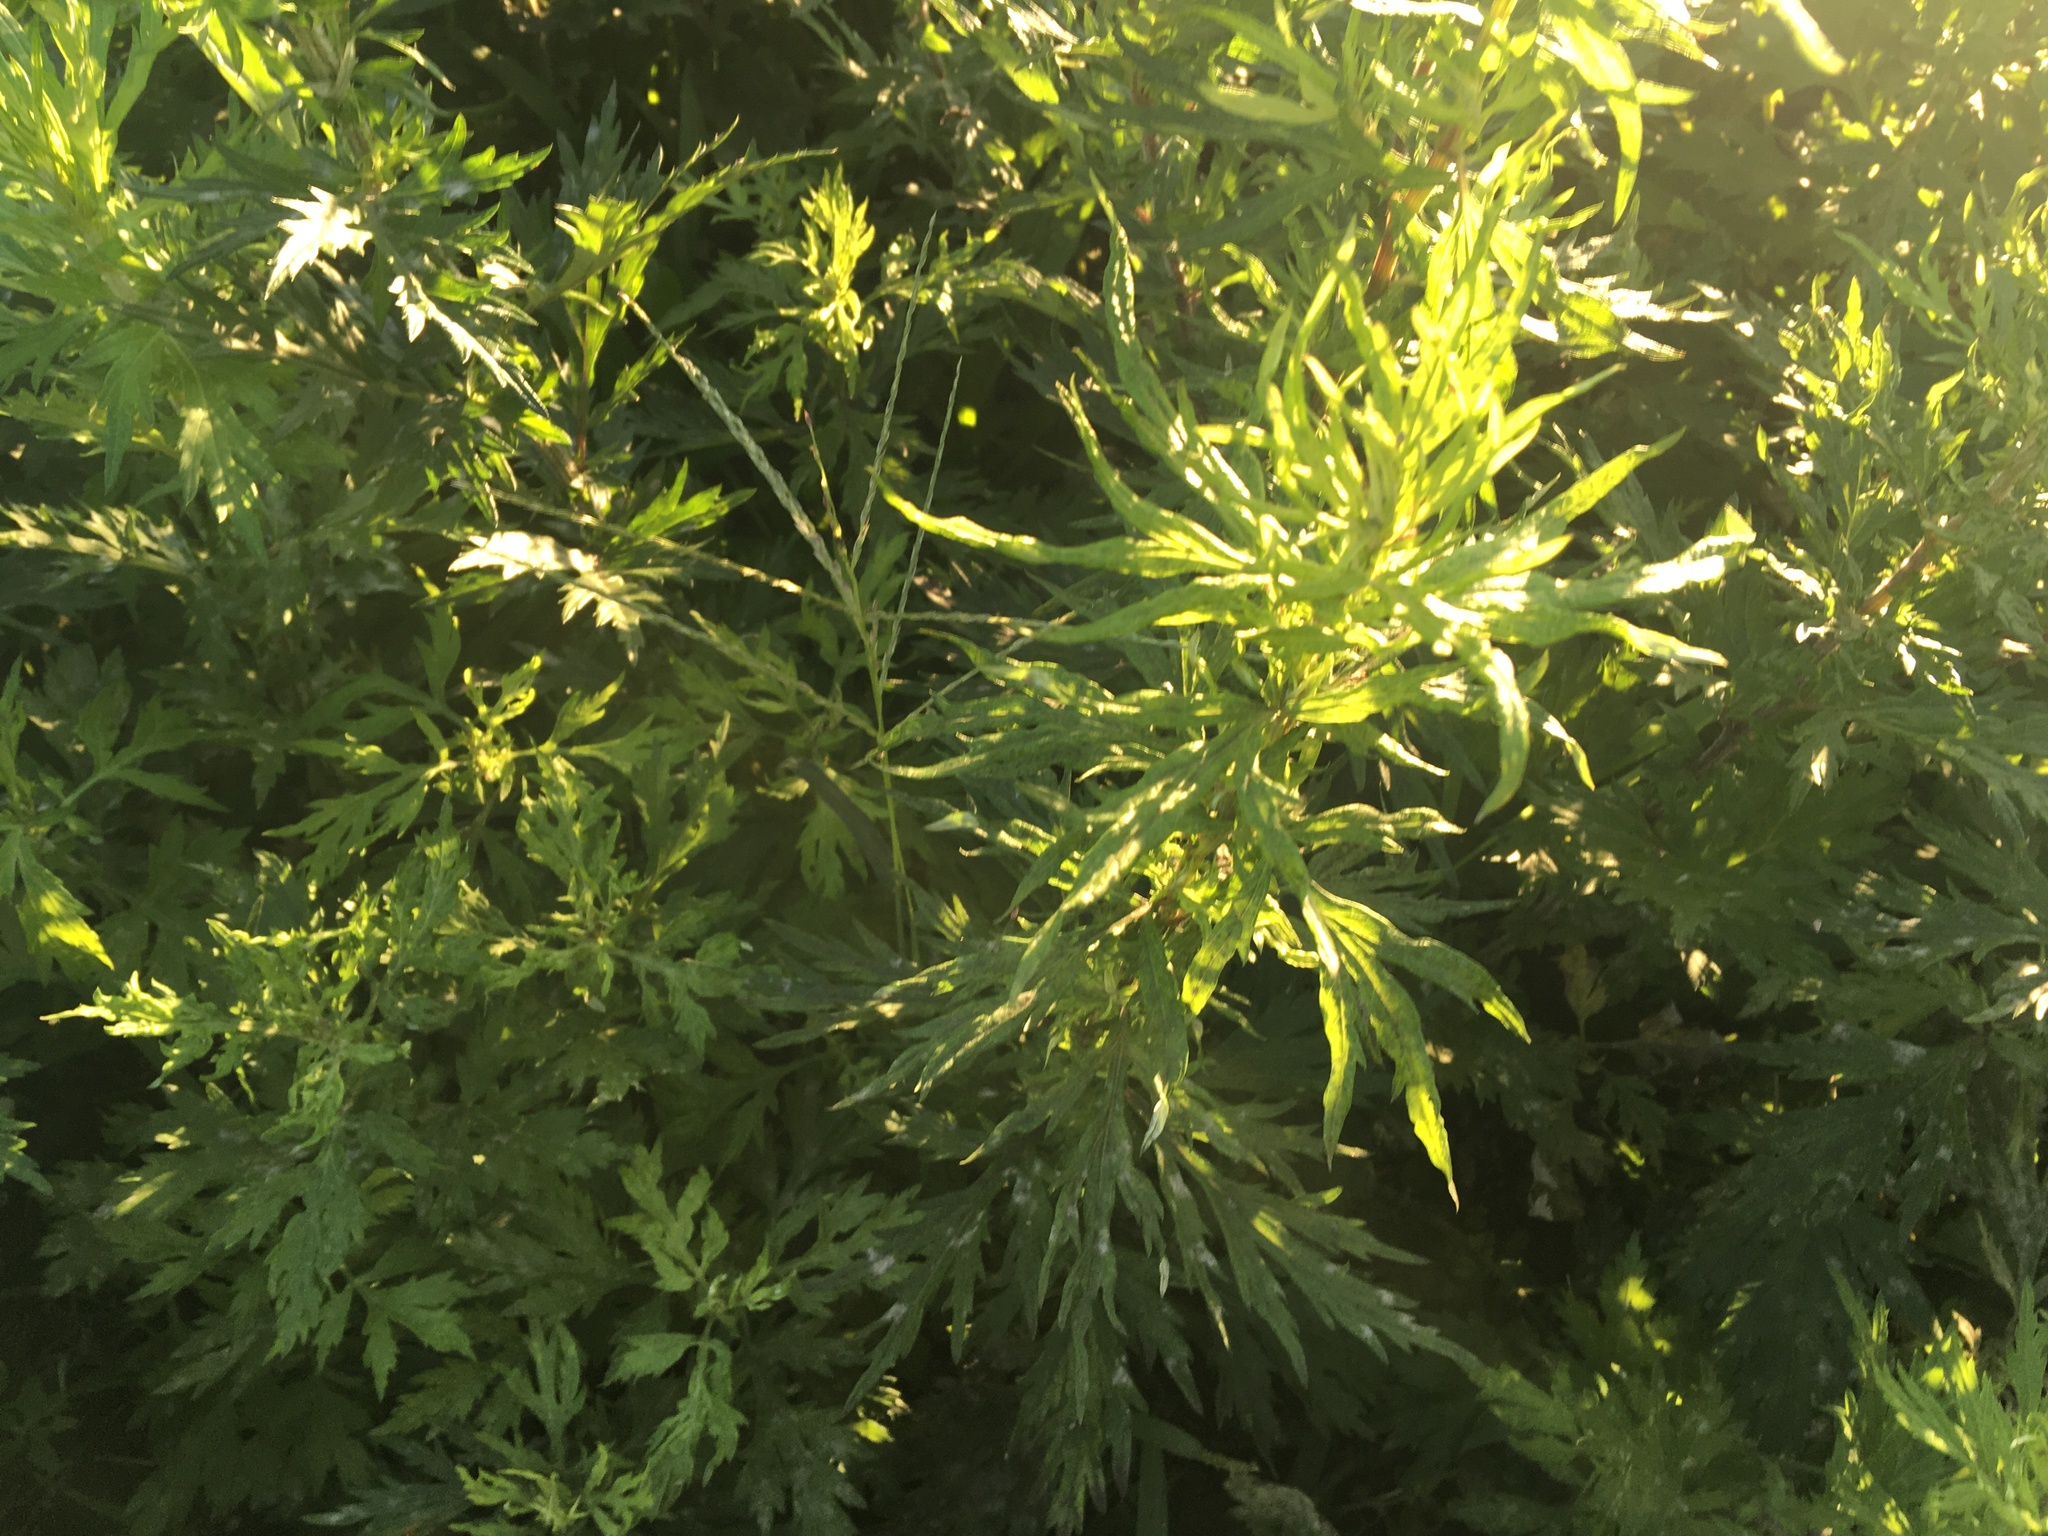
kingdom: Plantae
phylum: Tracheophyta
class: Magnoliopsida
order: Asterales
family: Asteraceae
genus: Artemisia
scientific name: Artemisia vulgaris
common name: Mugwort
